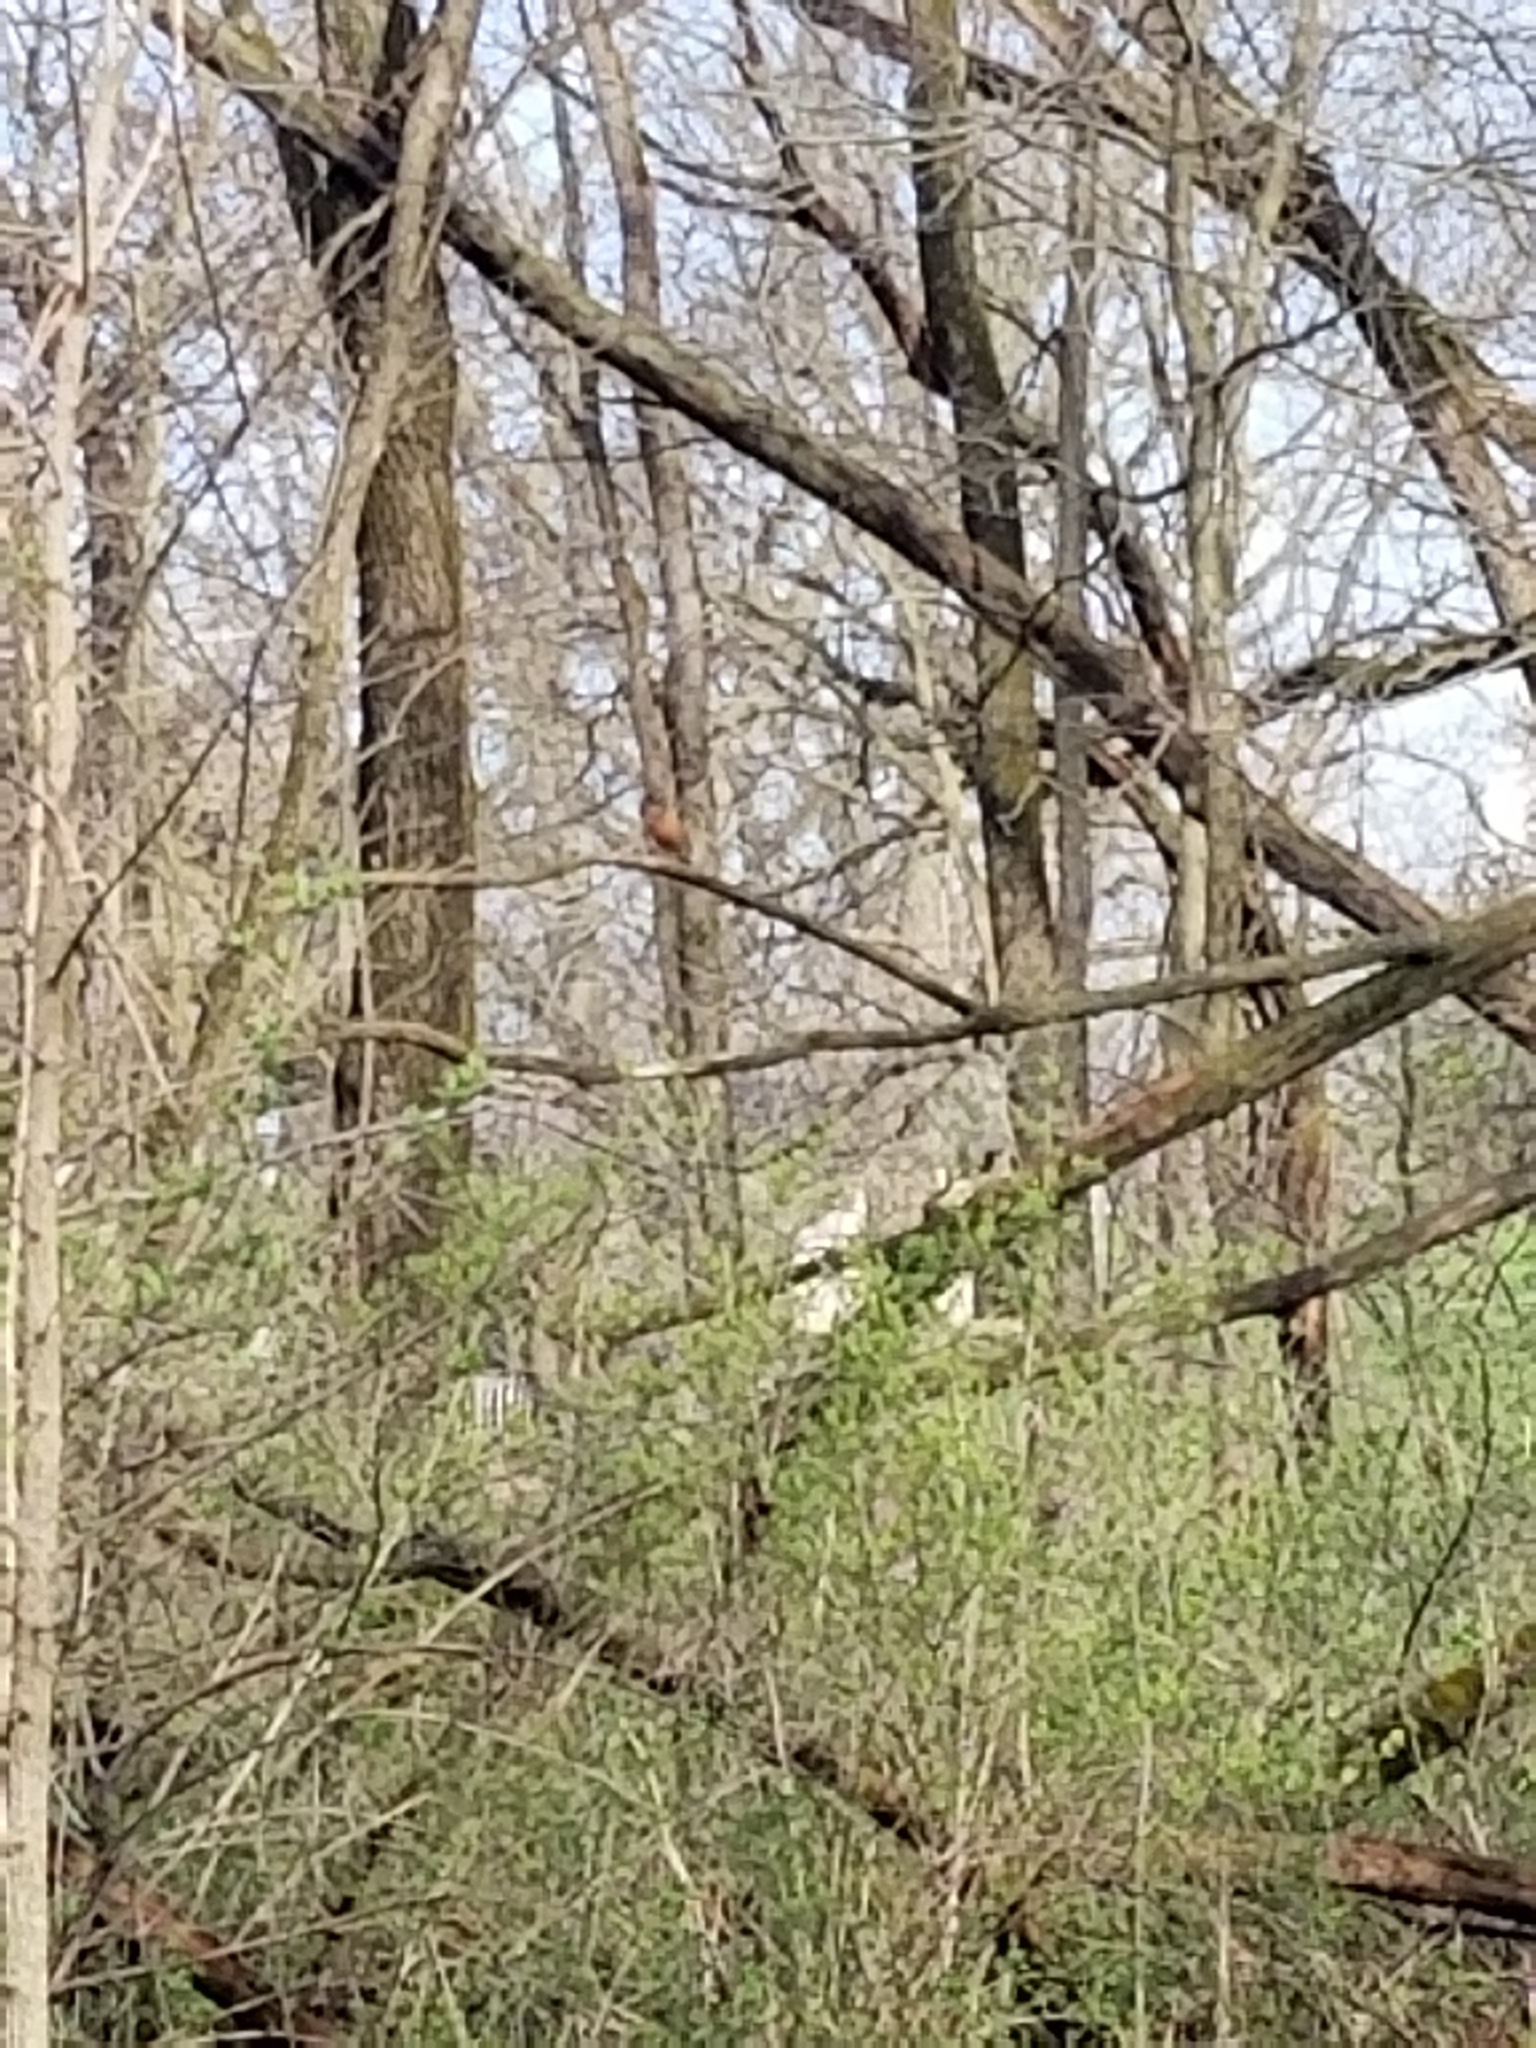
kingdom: Animalia
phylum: Chordata
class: Aves
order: Passeriformes
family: Turdidae
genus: Turdus
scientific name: Turdus migratorius
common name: American robin
